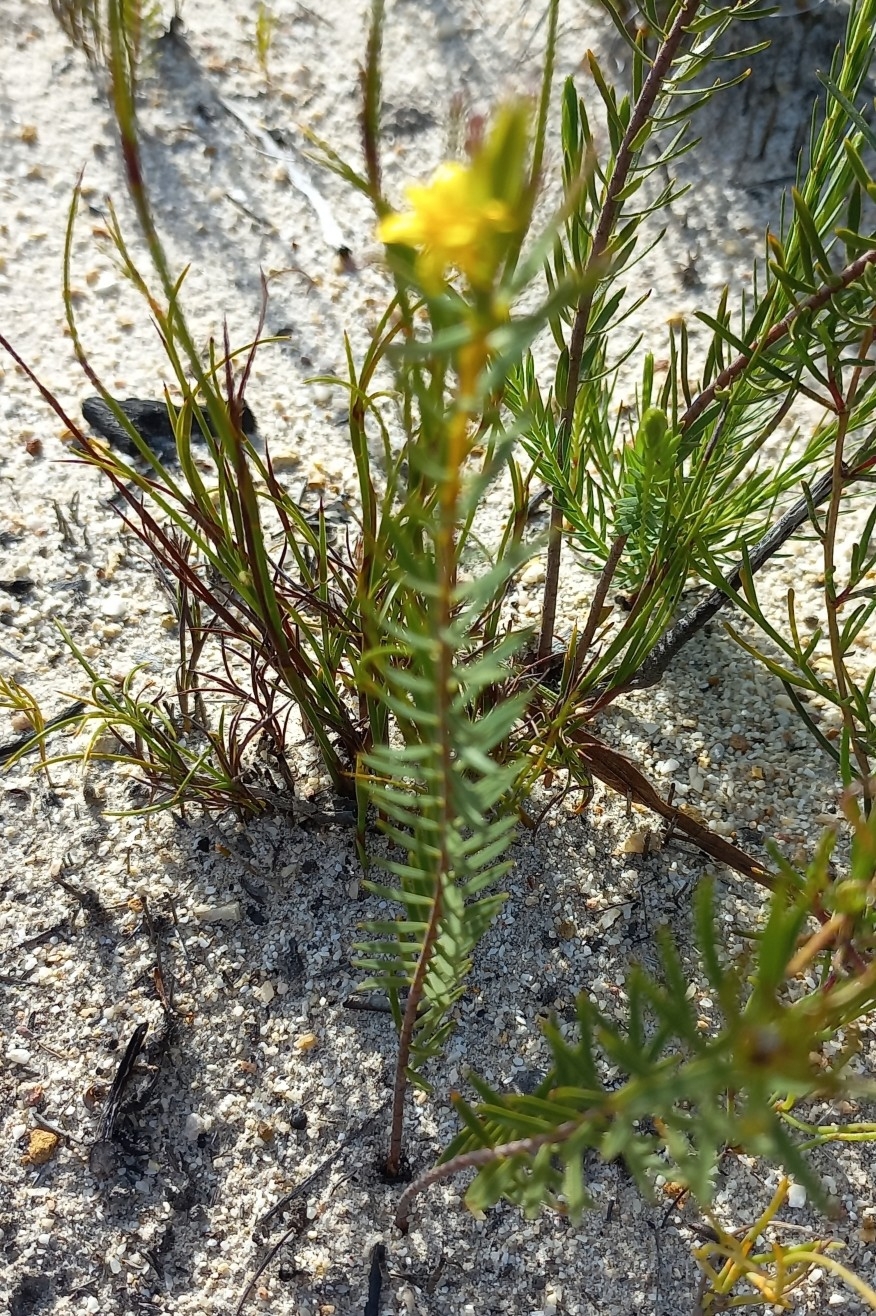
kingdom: Plantae
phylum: Tracheophyta
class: Magnoliopsida
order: Malvales
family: Thymelaeaceae
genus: Gnidia
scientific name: Gnidia juniperifolia
